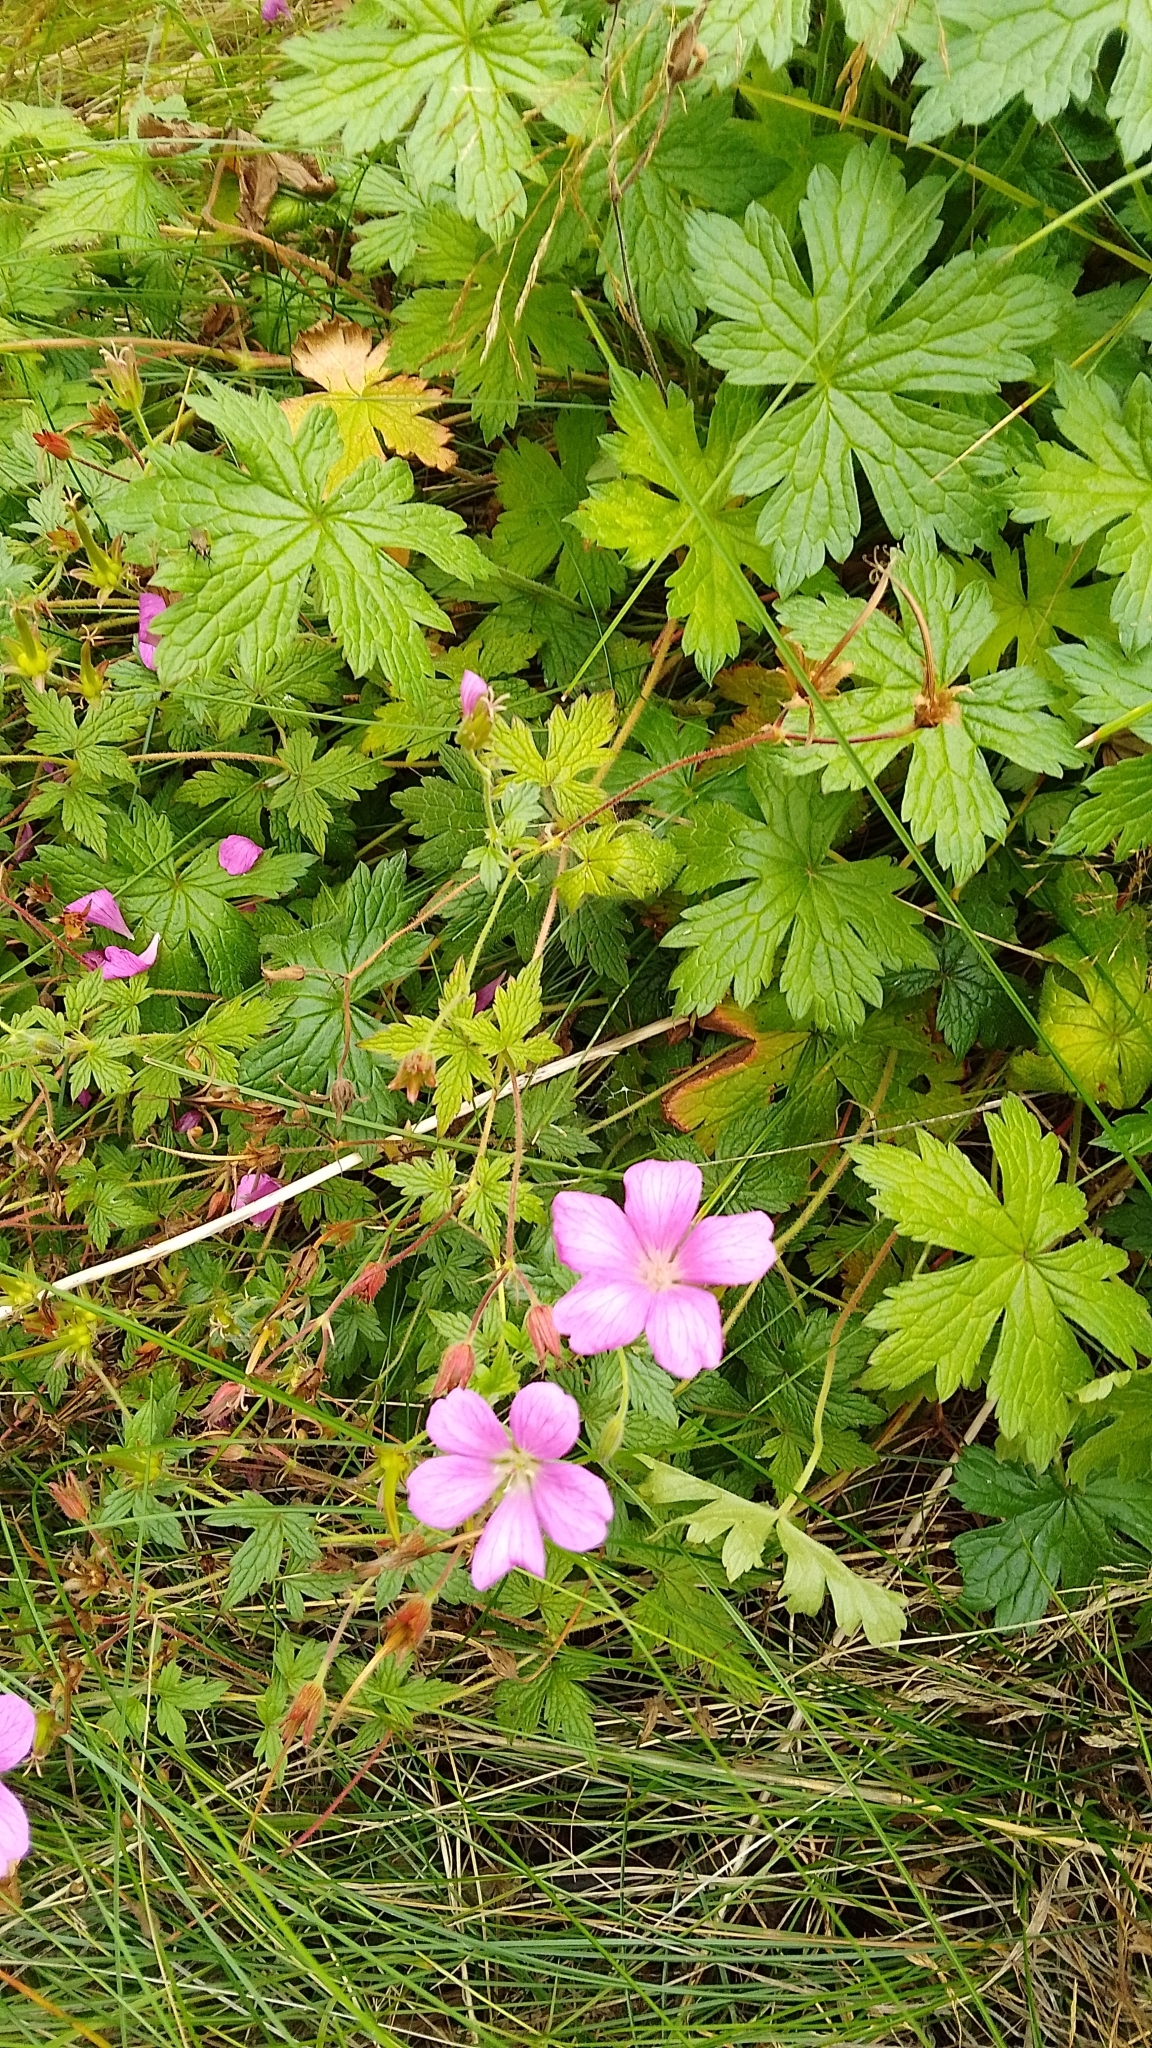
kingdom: Plantae
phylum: Tracheophyta
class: Magnoliopsida
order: Geraniales
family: Geraniaceae
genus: Geranium
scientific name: Geranium oxonianum
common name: Druce's crane's-bill
